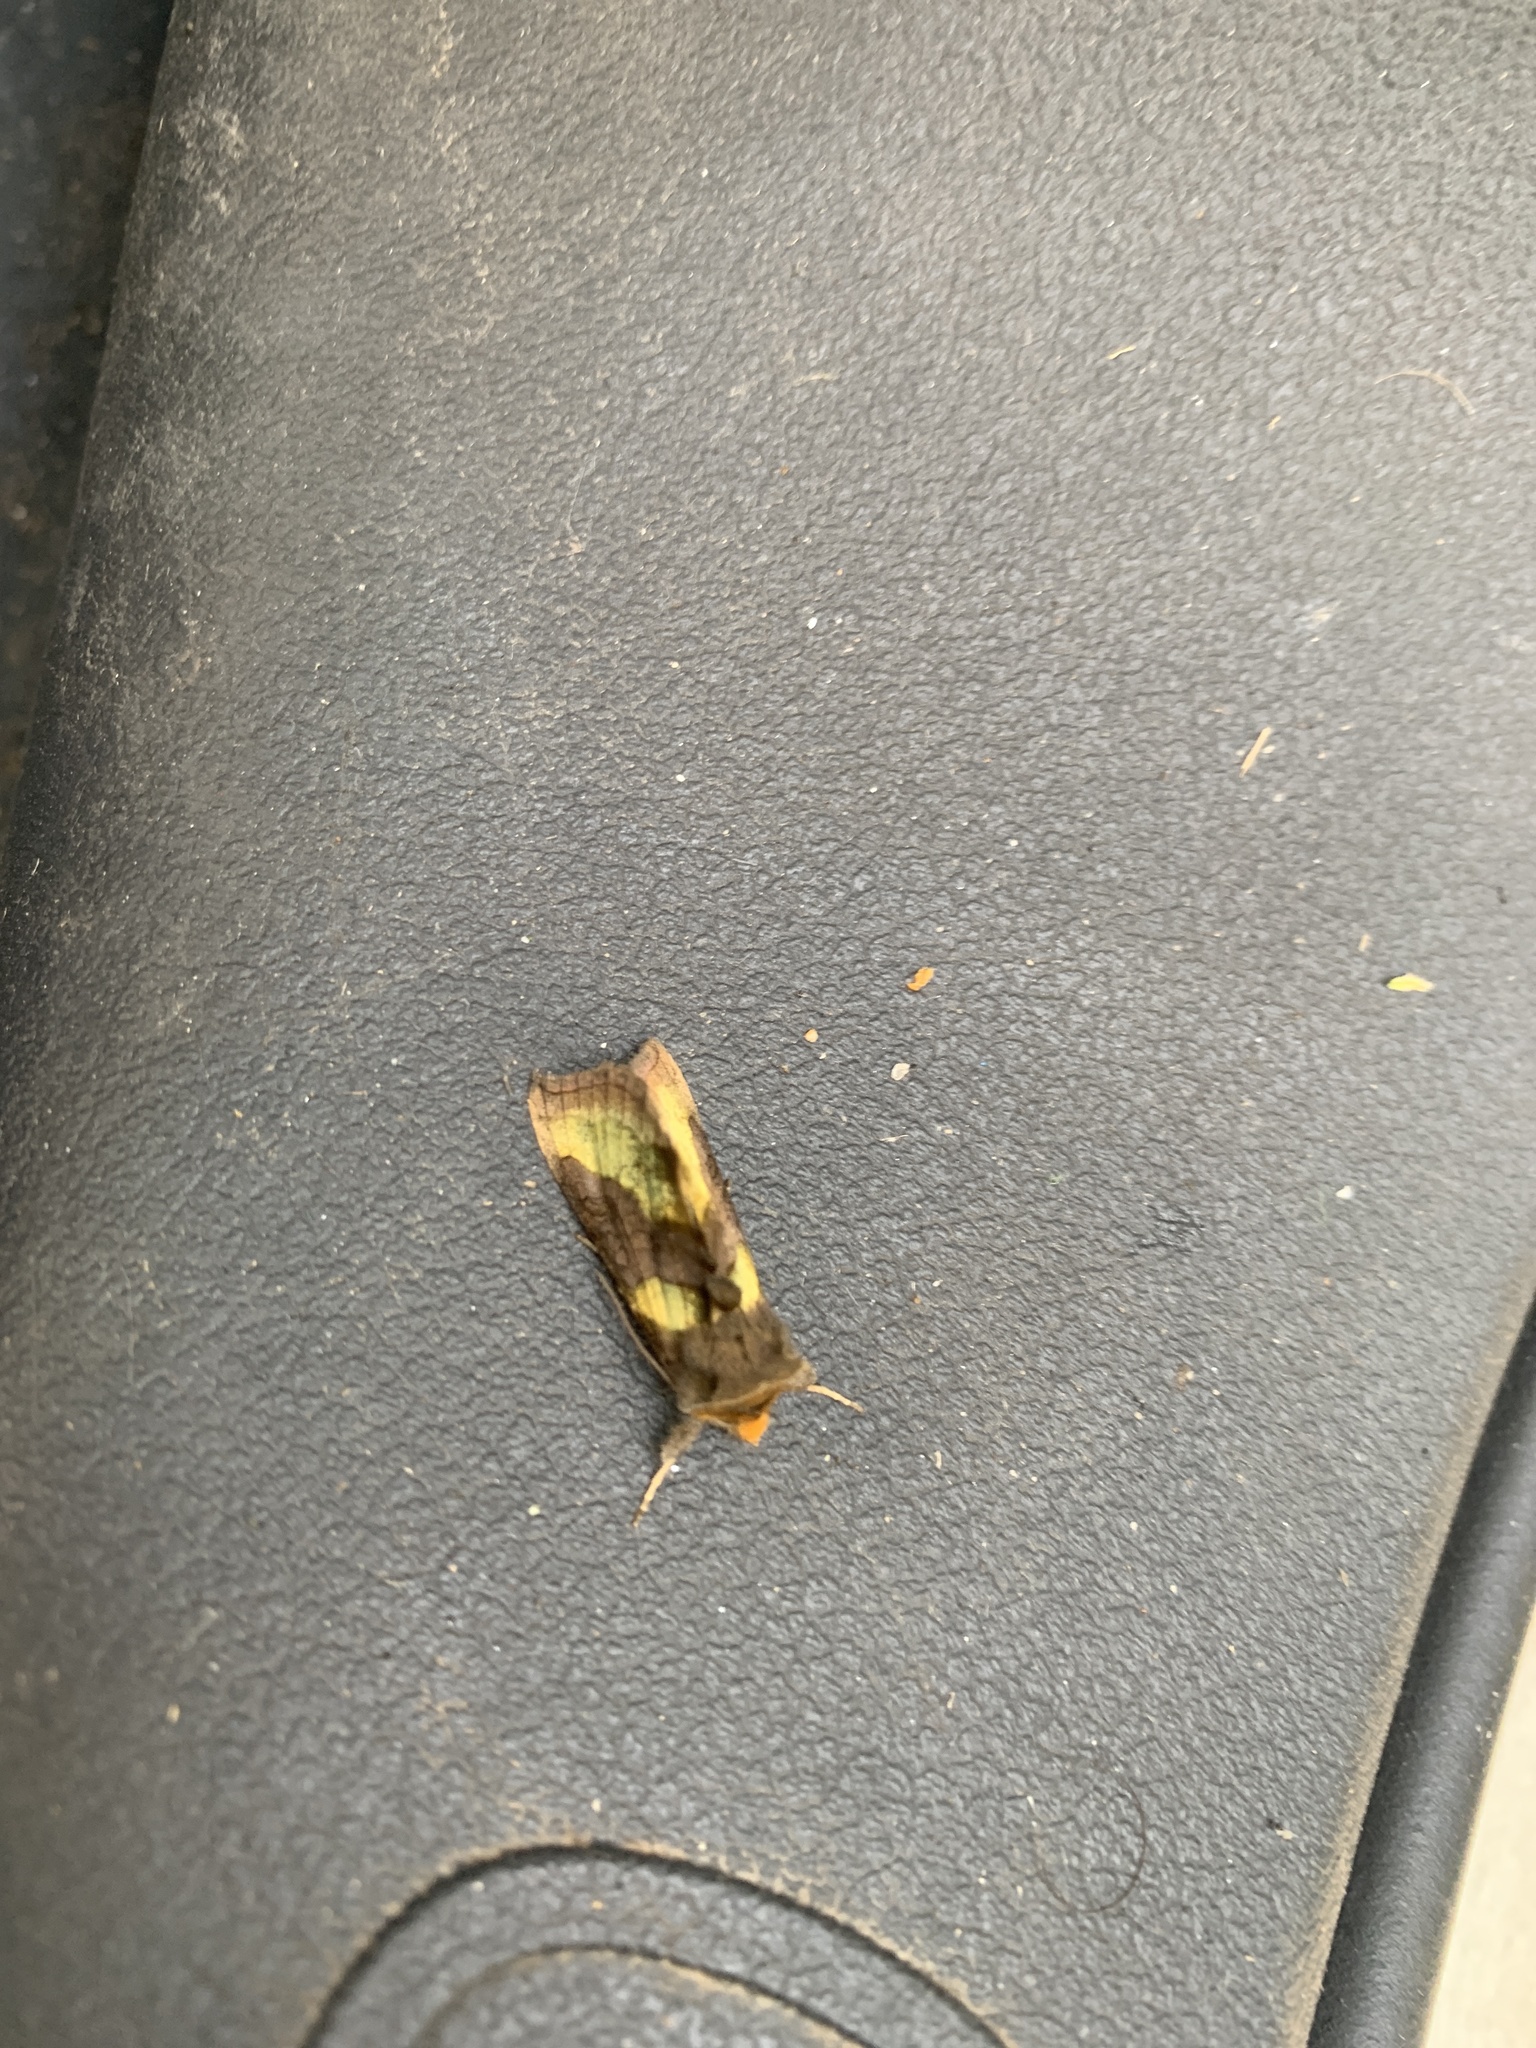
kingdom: Animalia
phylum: Arthropoda
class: Insecta
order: Lepidoptera
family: Noctuidae
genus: Diachrysia
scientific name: Diachrysia chrysitis
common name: Burnished brass
